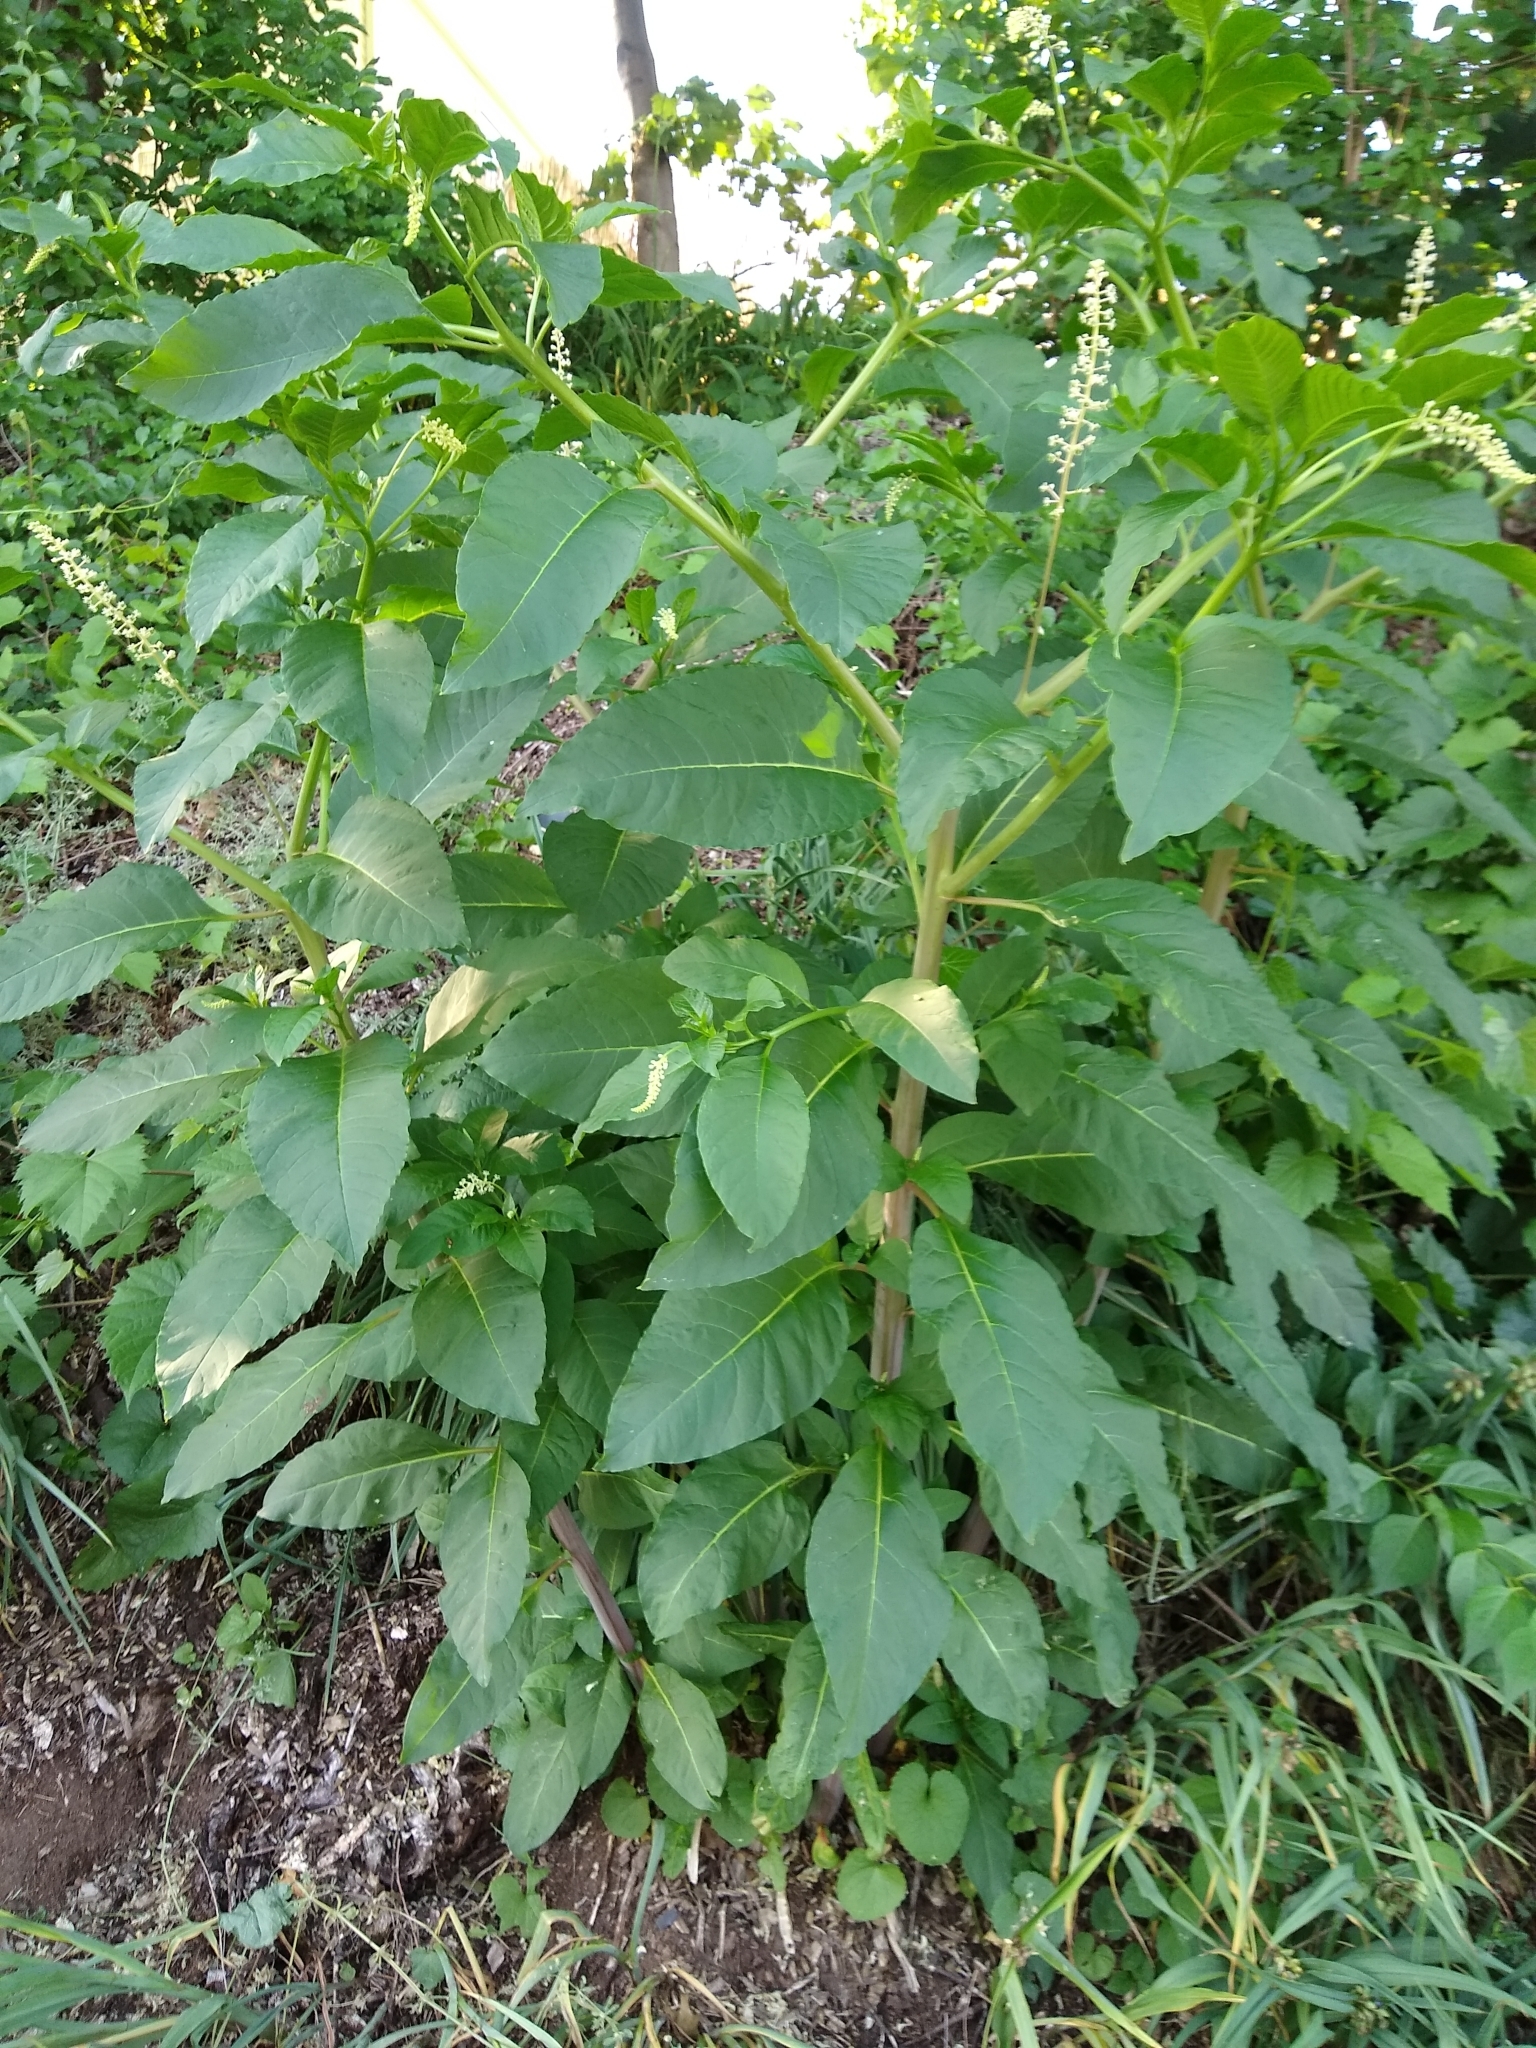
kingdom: Plantae
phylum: Tracheophyta
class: Magnoliopsida
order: Caryophyllales
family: Phytolaccaceae
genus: Phytolacca
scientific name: Phytolacca americana
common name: American pokeweed
